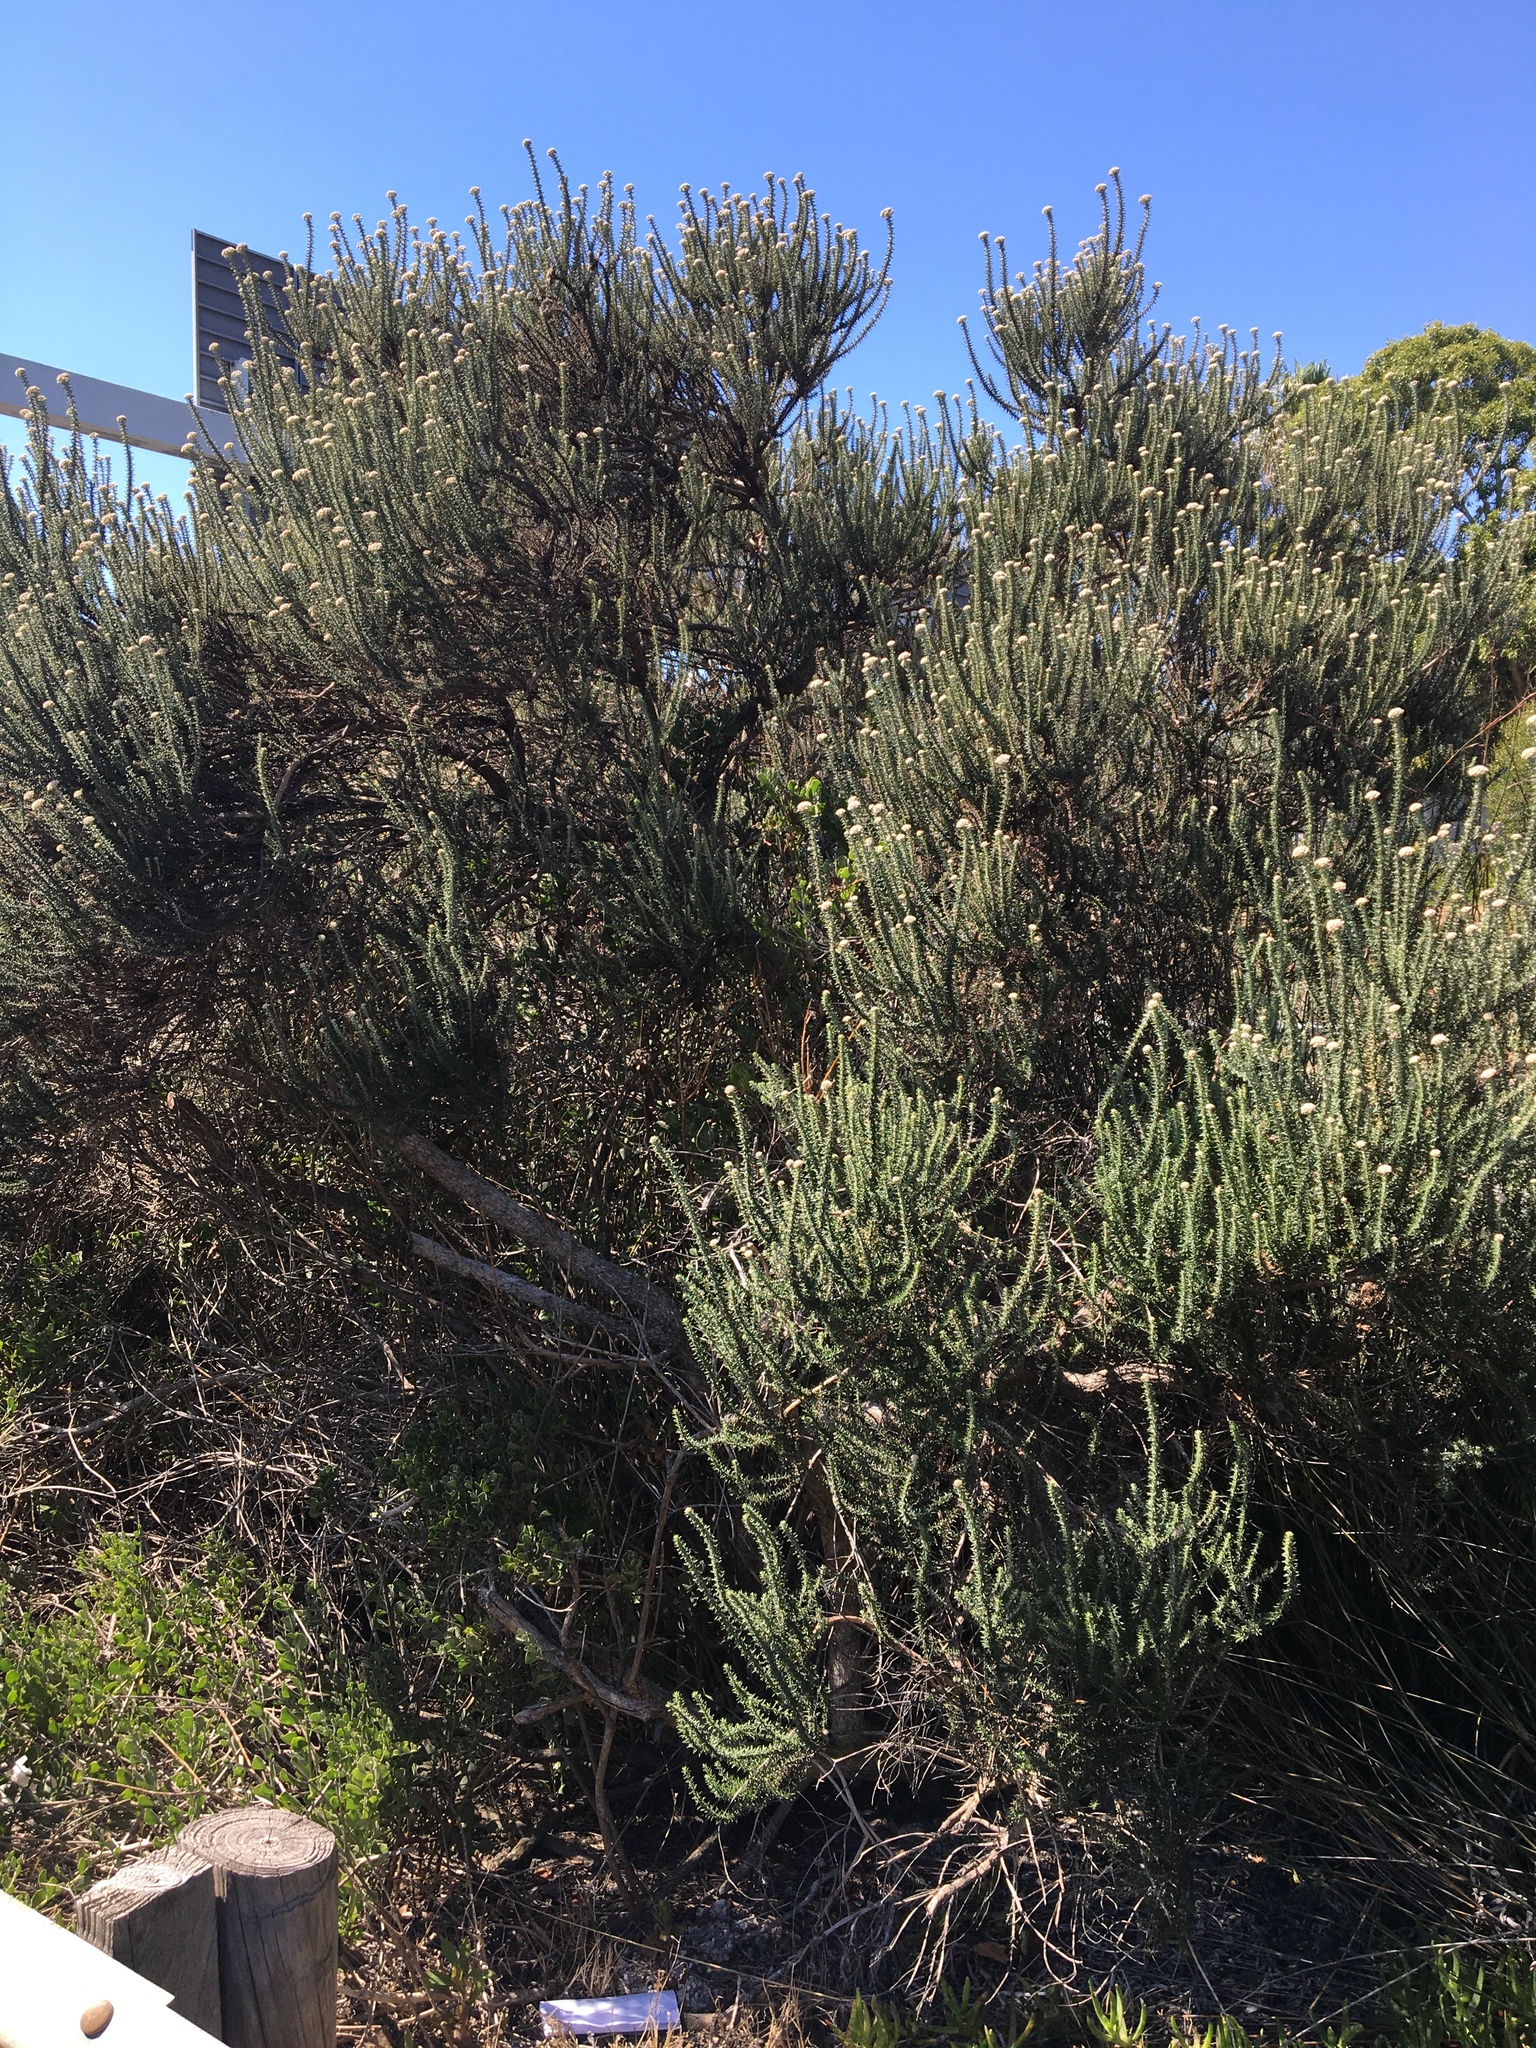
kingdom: Plantae
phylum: Tracheophyta
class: Magnoliopsida
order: Asterales
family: Asteraceae
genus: Metalasia
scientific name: Metalasia densa
